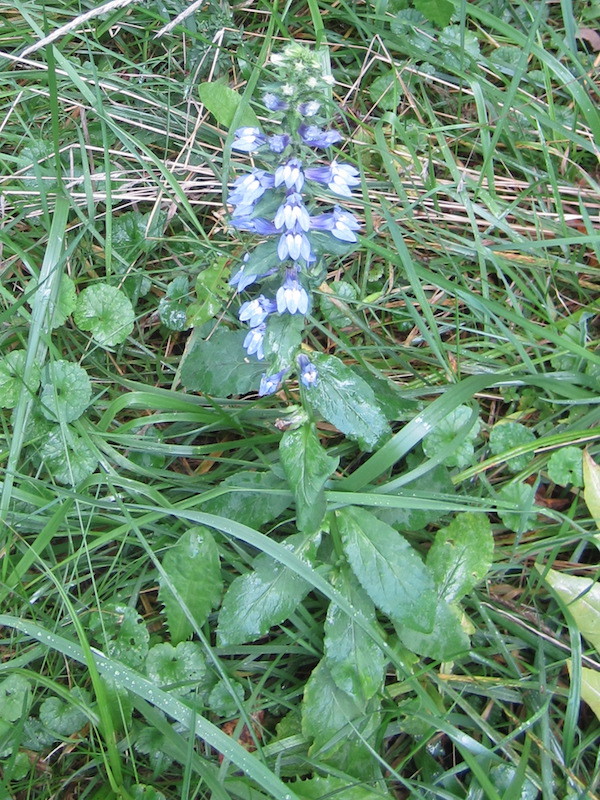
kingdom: Plantae
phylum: Tracheophyta
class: Magnoliopsida
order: Asterales
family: Campanulaceae
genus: Lobelia
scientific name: Lobelia siphilitica
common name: Great lobelia
